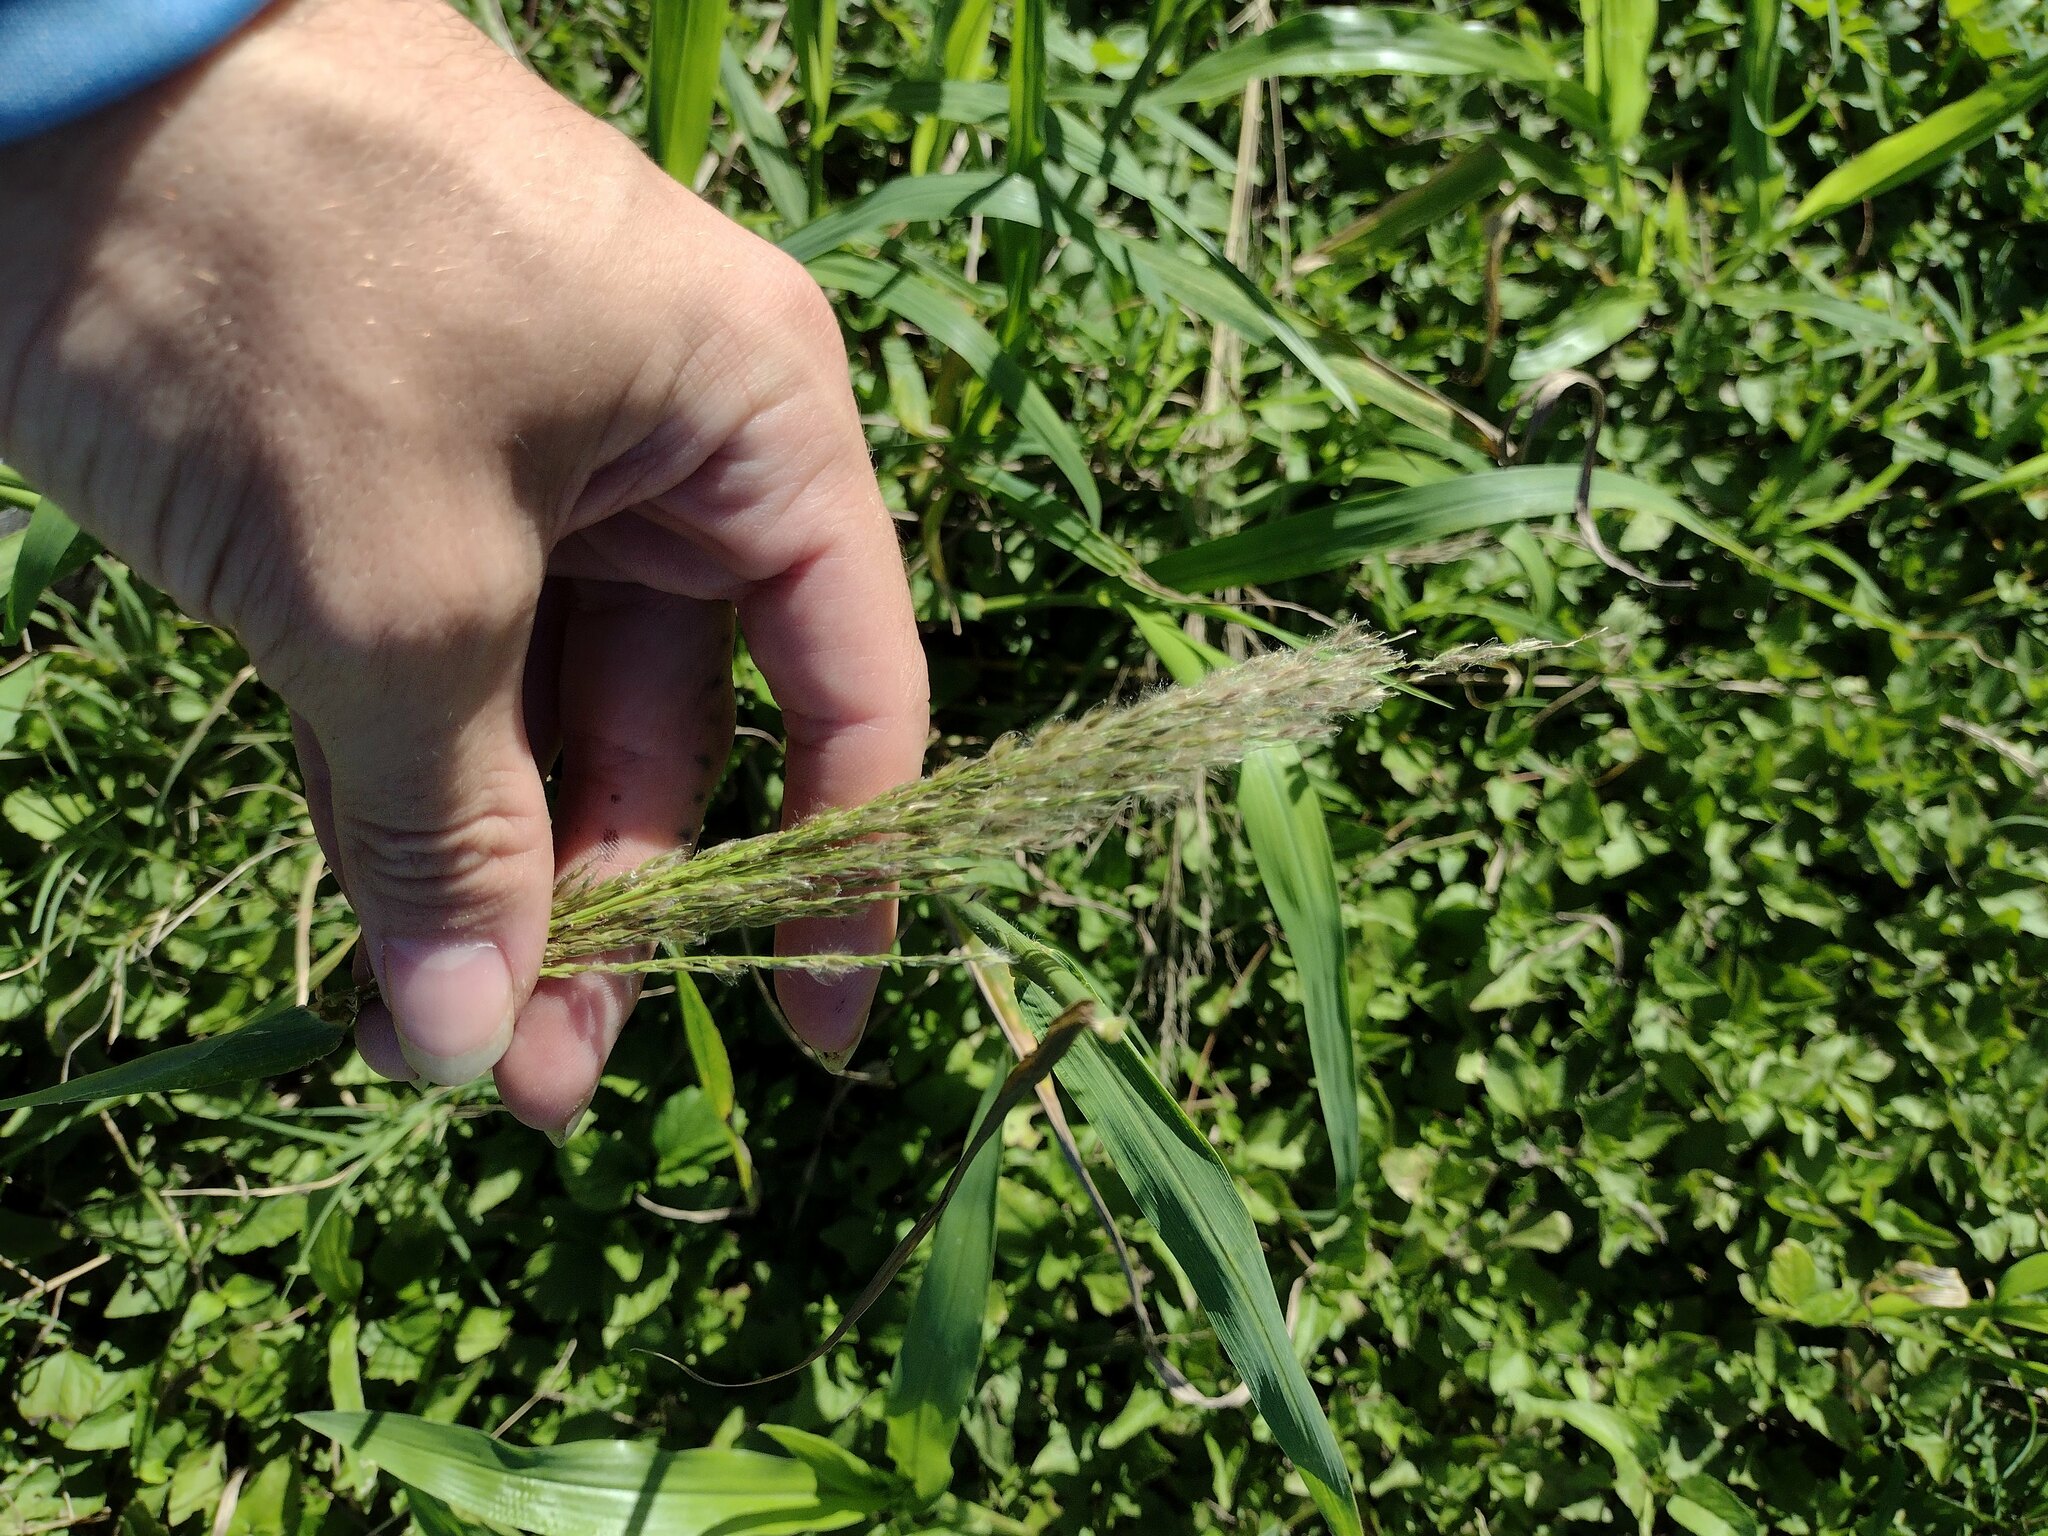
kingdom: Plantae
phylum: Tracheophyta
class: Liliopsida
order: Poales
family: Poaceae
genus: Digitaria
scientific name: Digitaria insularis
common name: Sourgrass
